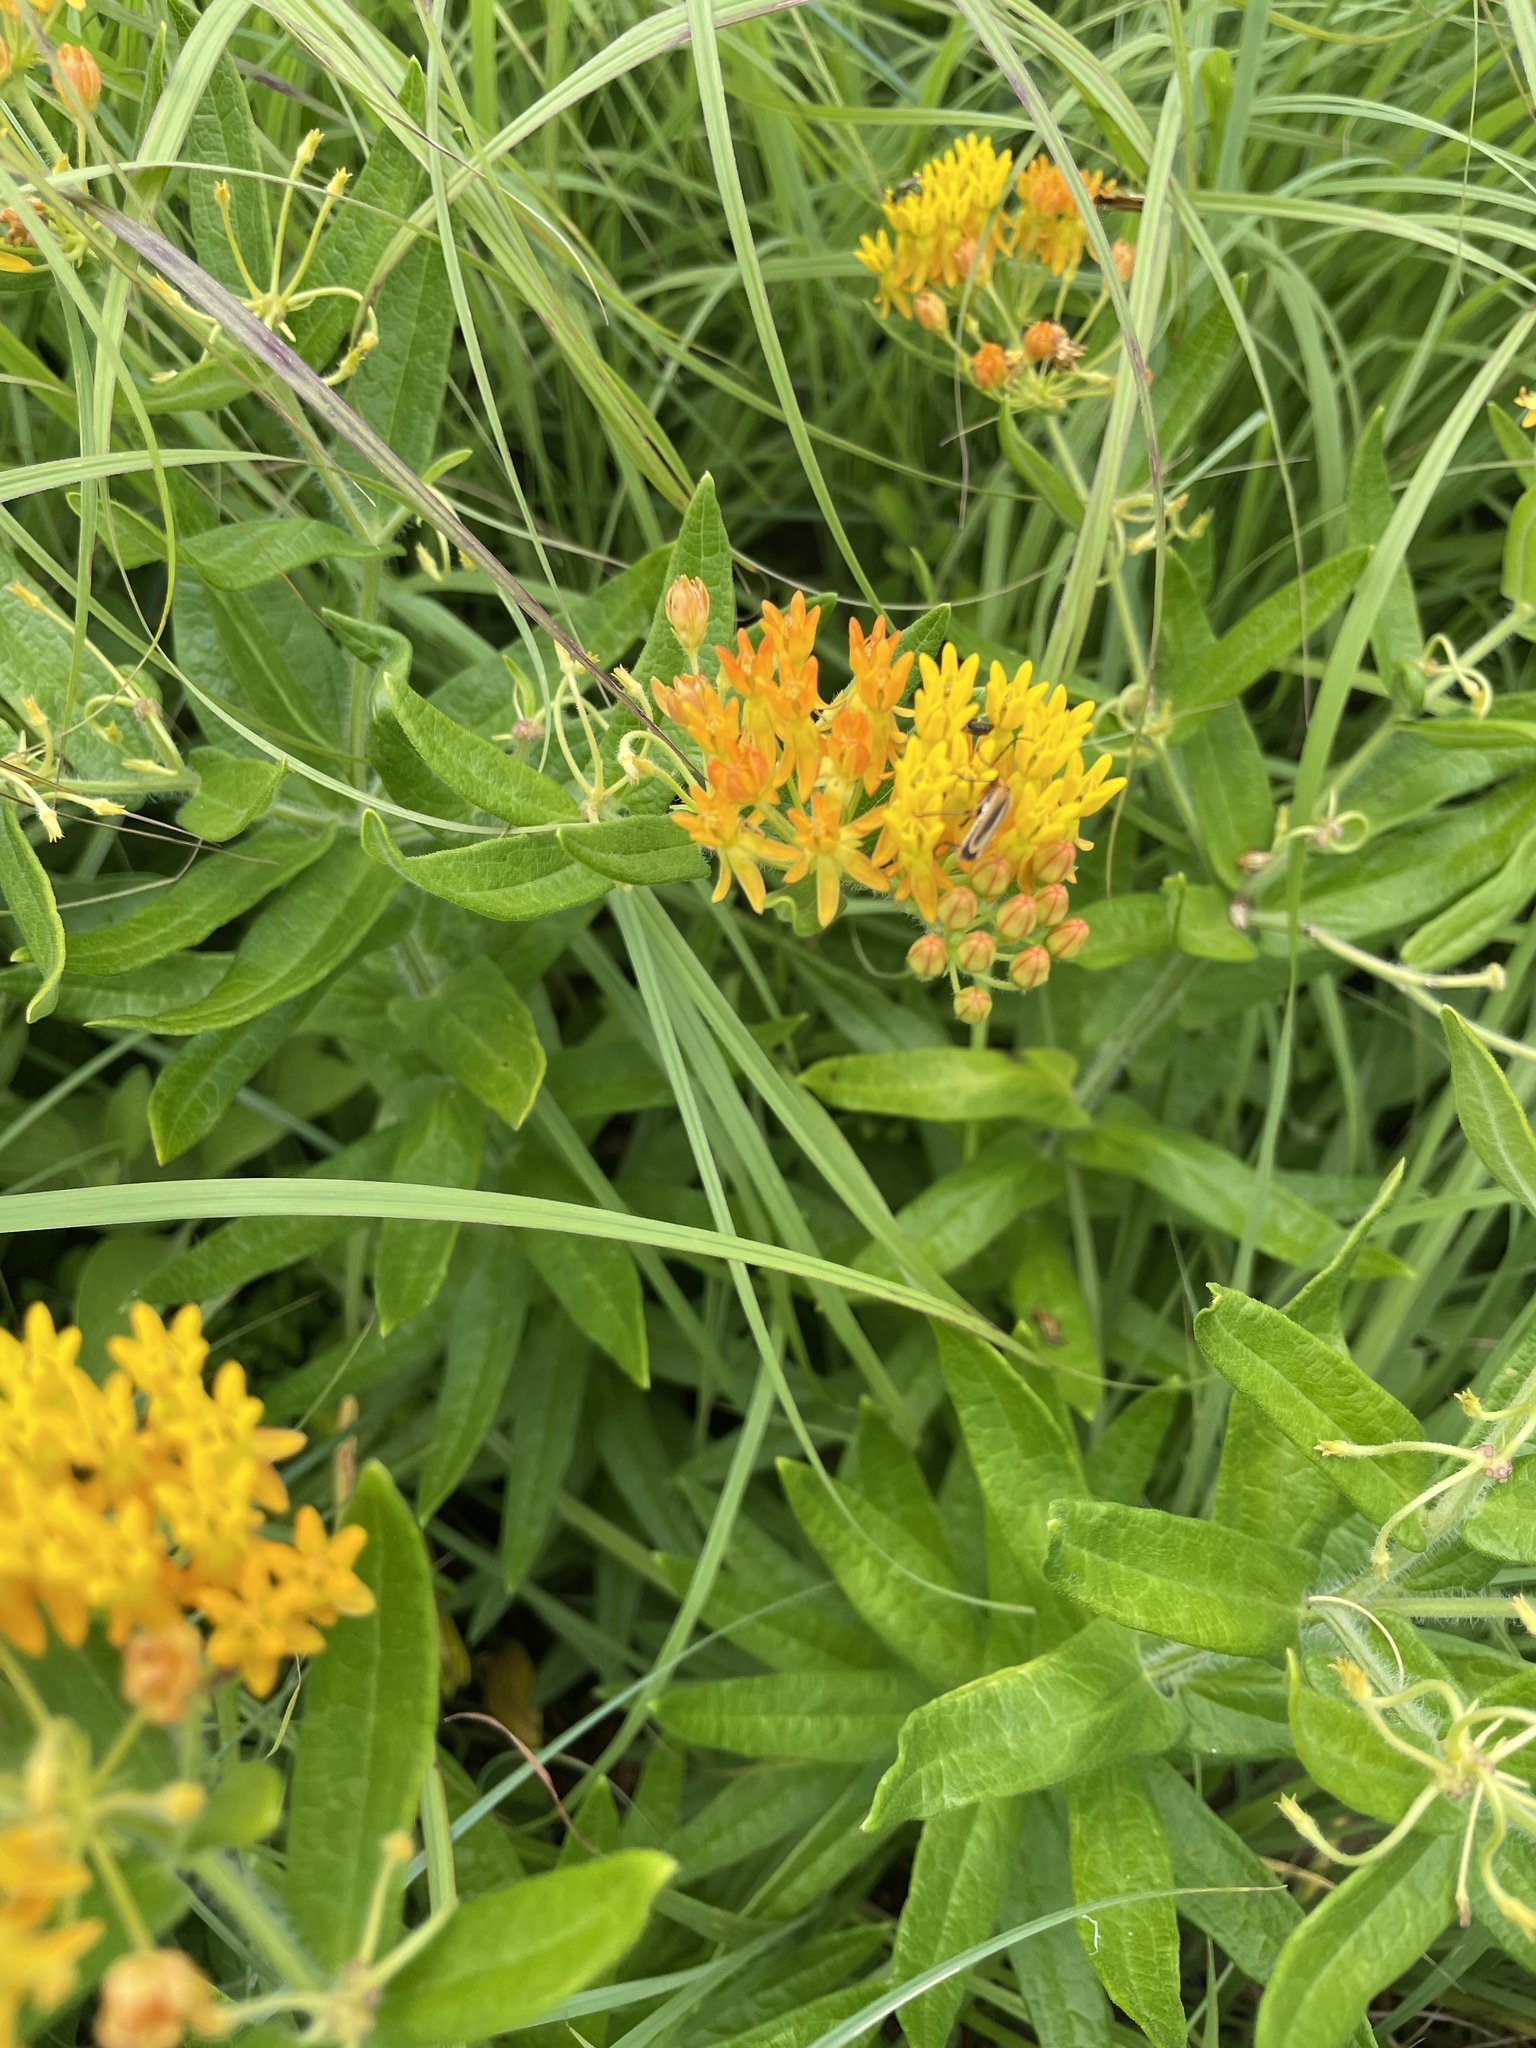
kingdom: Plantae
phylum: Tracheophyta
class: Magnoliopsida
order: Gentianales
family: Apocynaceae
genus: Asclepias
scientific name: Asclepias tuberosa
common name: Butterfly milkweed
